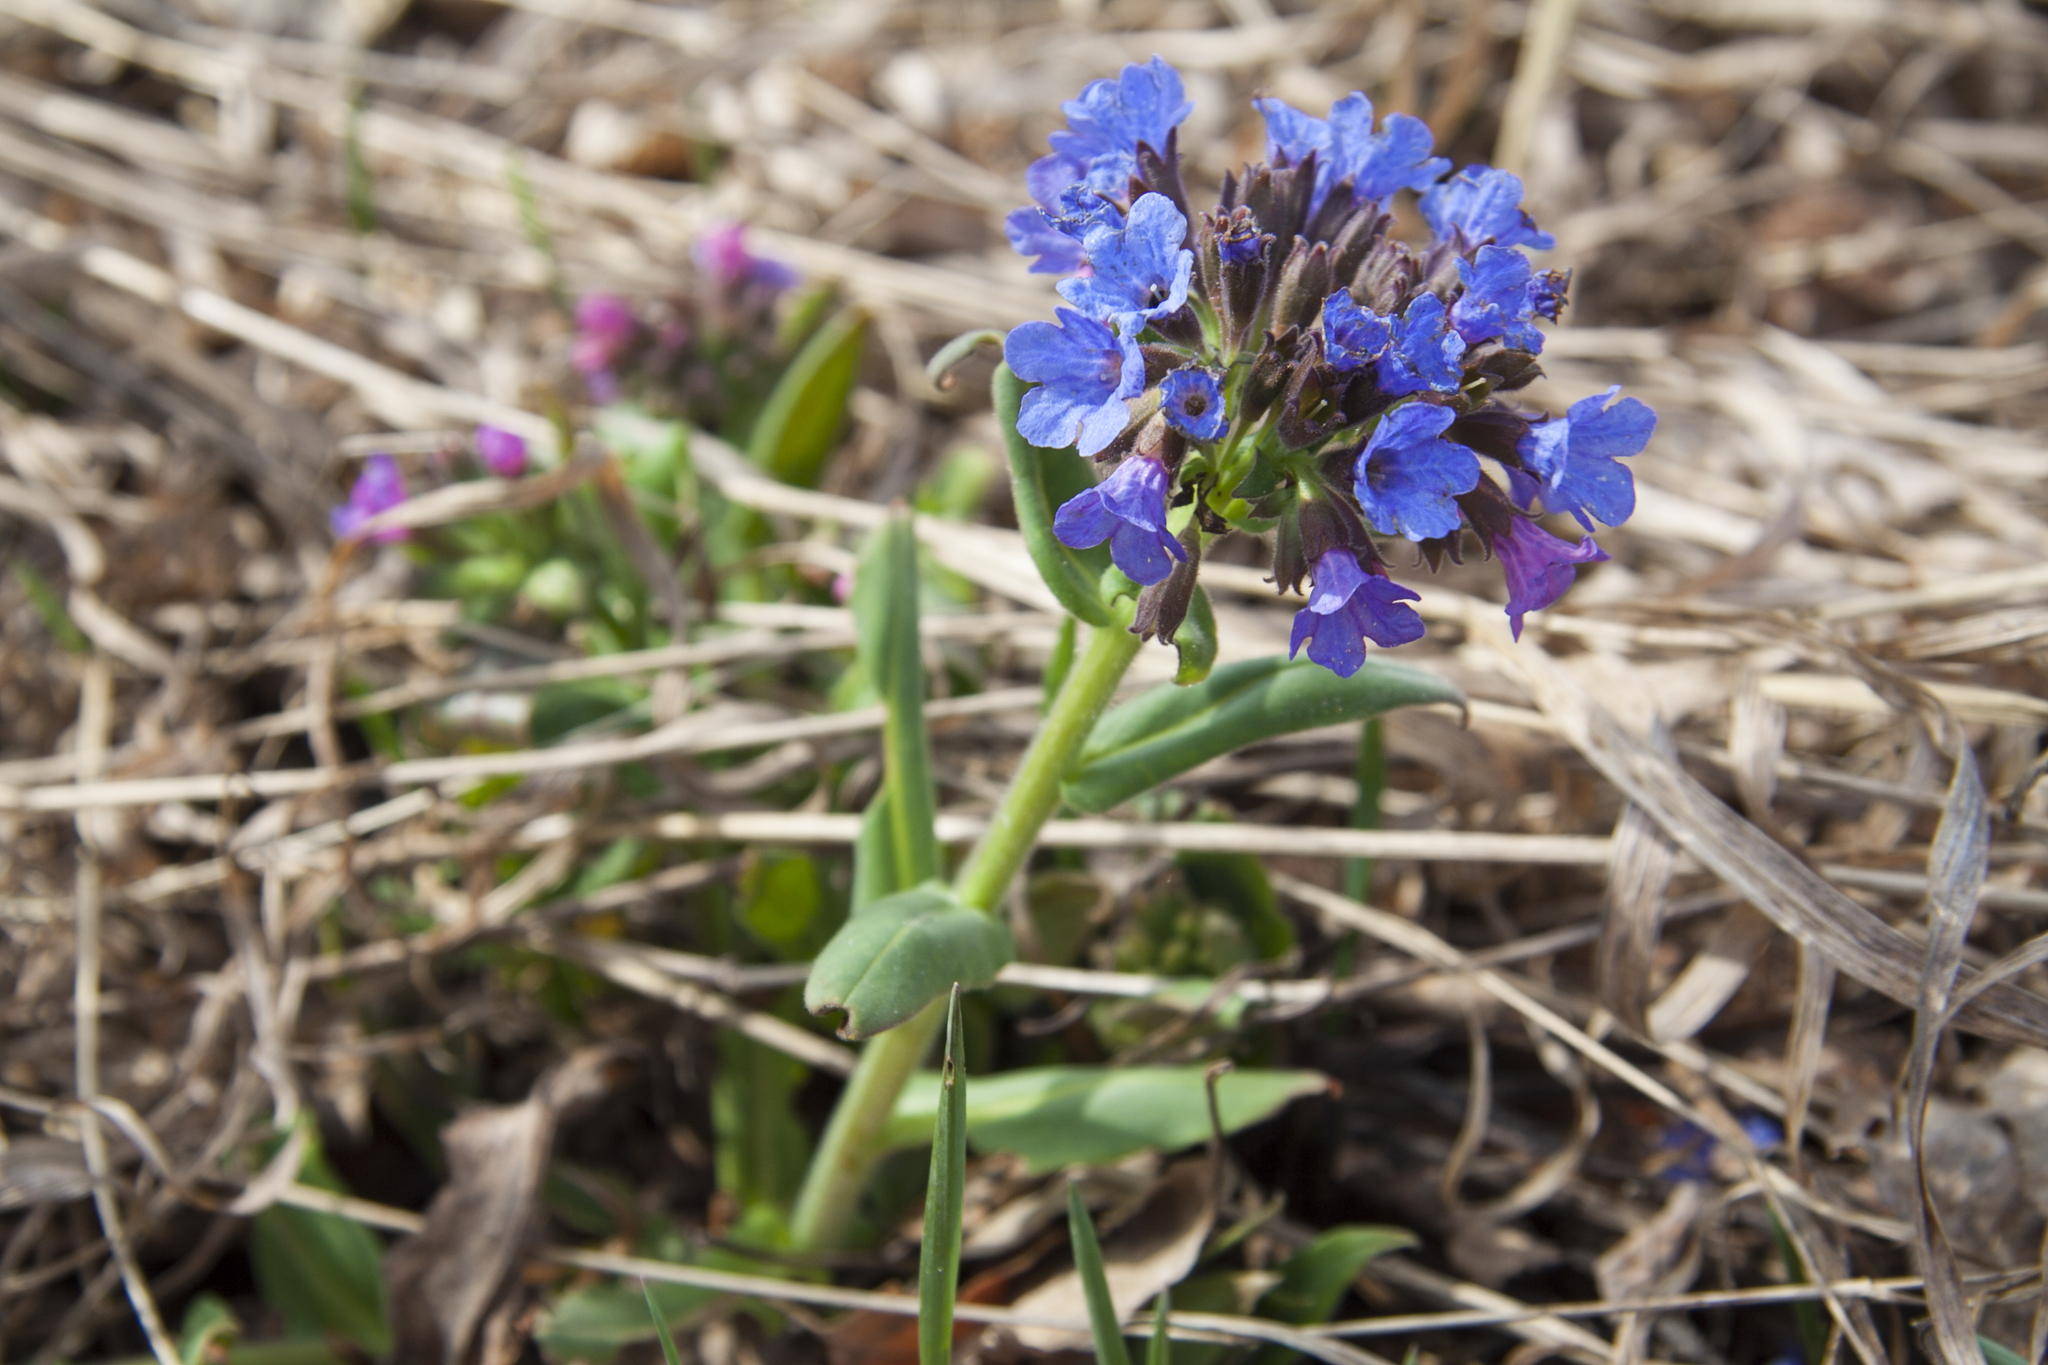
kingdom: Plantae
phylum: Tracheophyta
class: Magnoliopsida
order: Boraginales
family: Boraginaceae
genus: Pulmonaria
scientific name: Pulmonaria mollis
